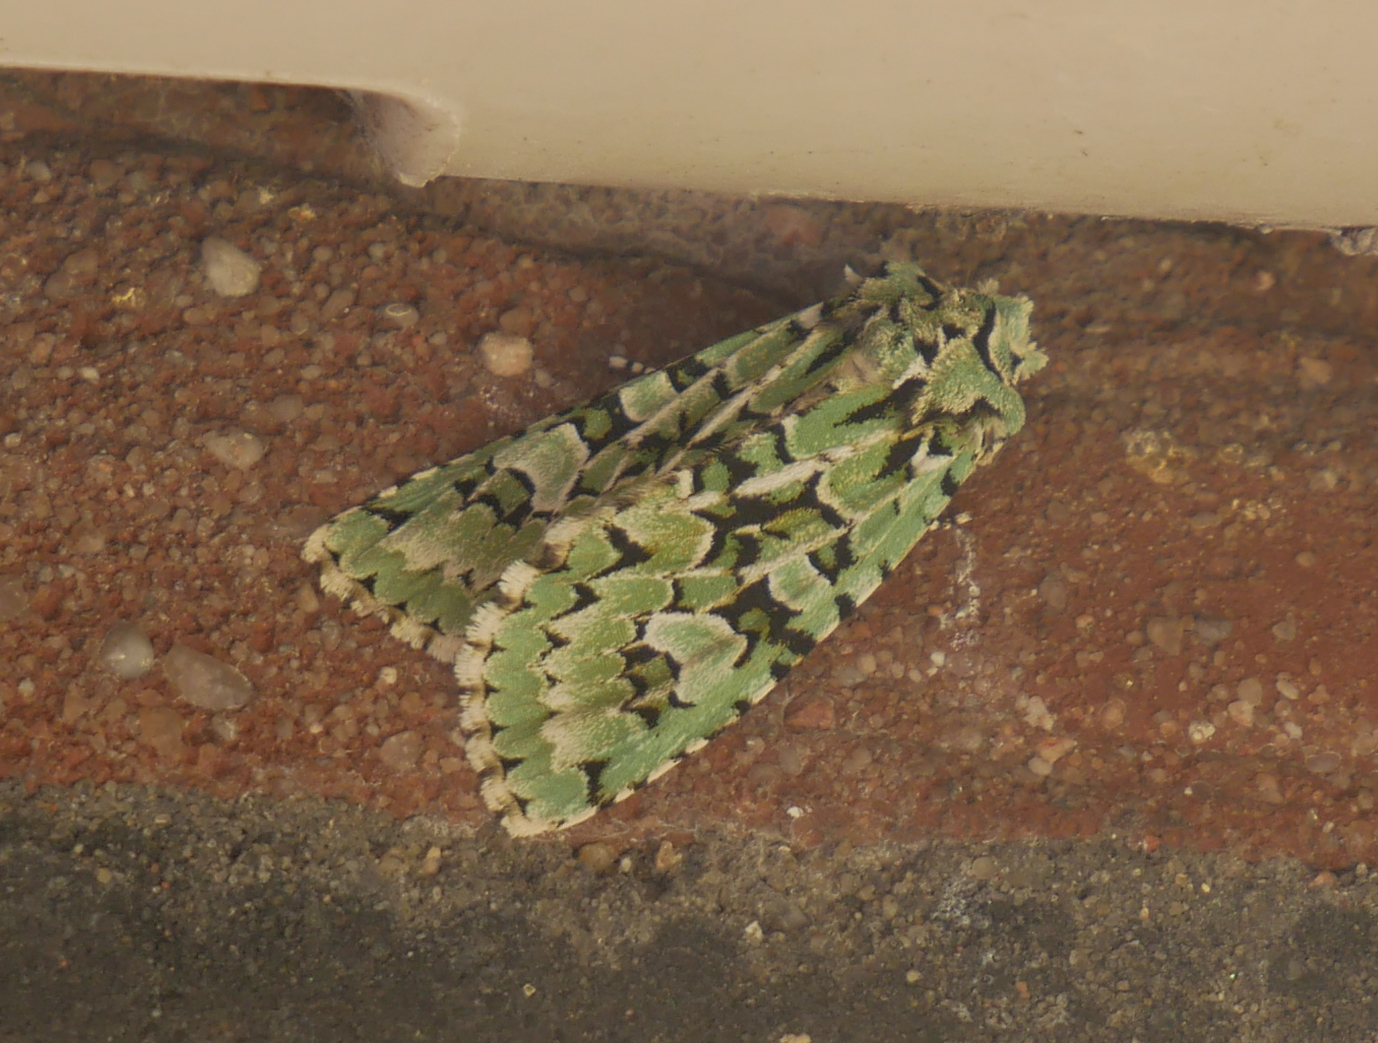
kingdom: Animalia
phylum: Arthropoda
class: Insecta
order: Lepidoptera
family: Noctuidae
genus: Griposia
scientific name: Griposia aprilina
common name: Merveille du jour
